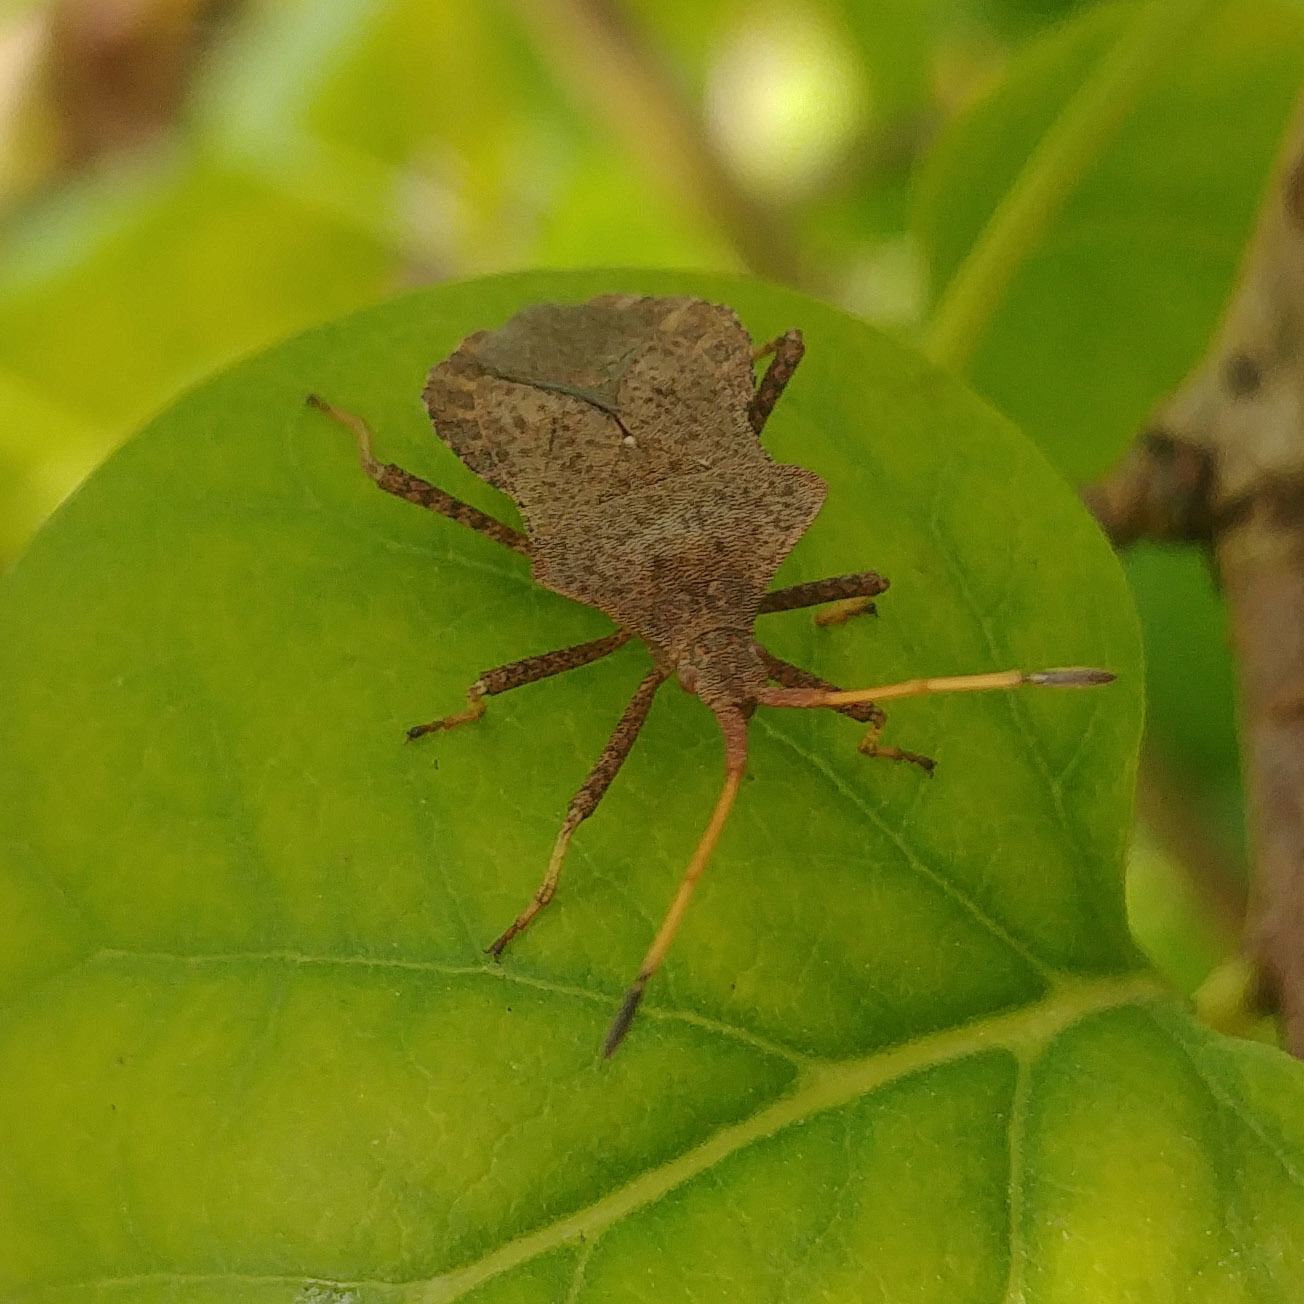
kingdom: Animalia
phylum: Arthropoda
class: Insecta
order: Hemiptera
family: Coreidae
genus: Coreus
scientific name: Coreus marginatus
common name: Dock bug
